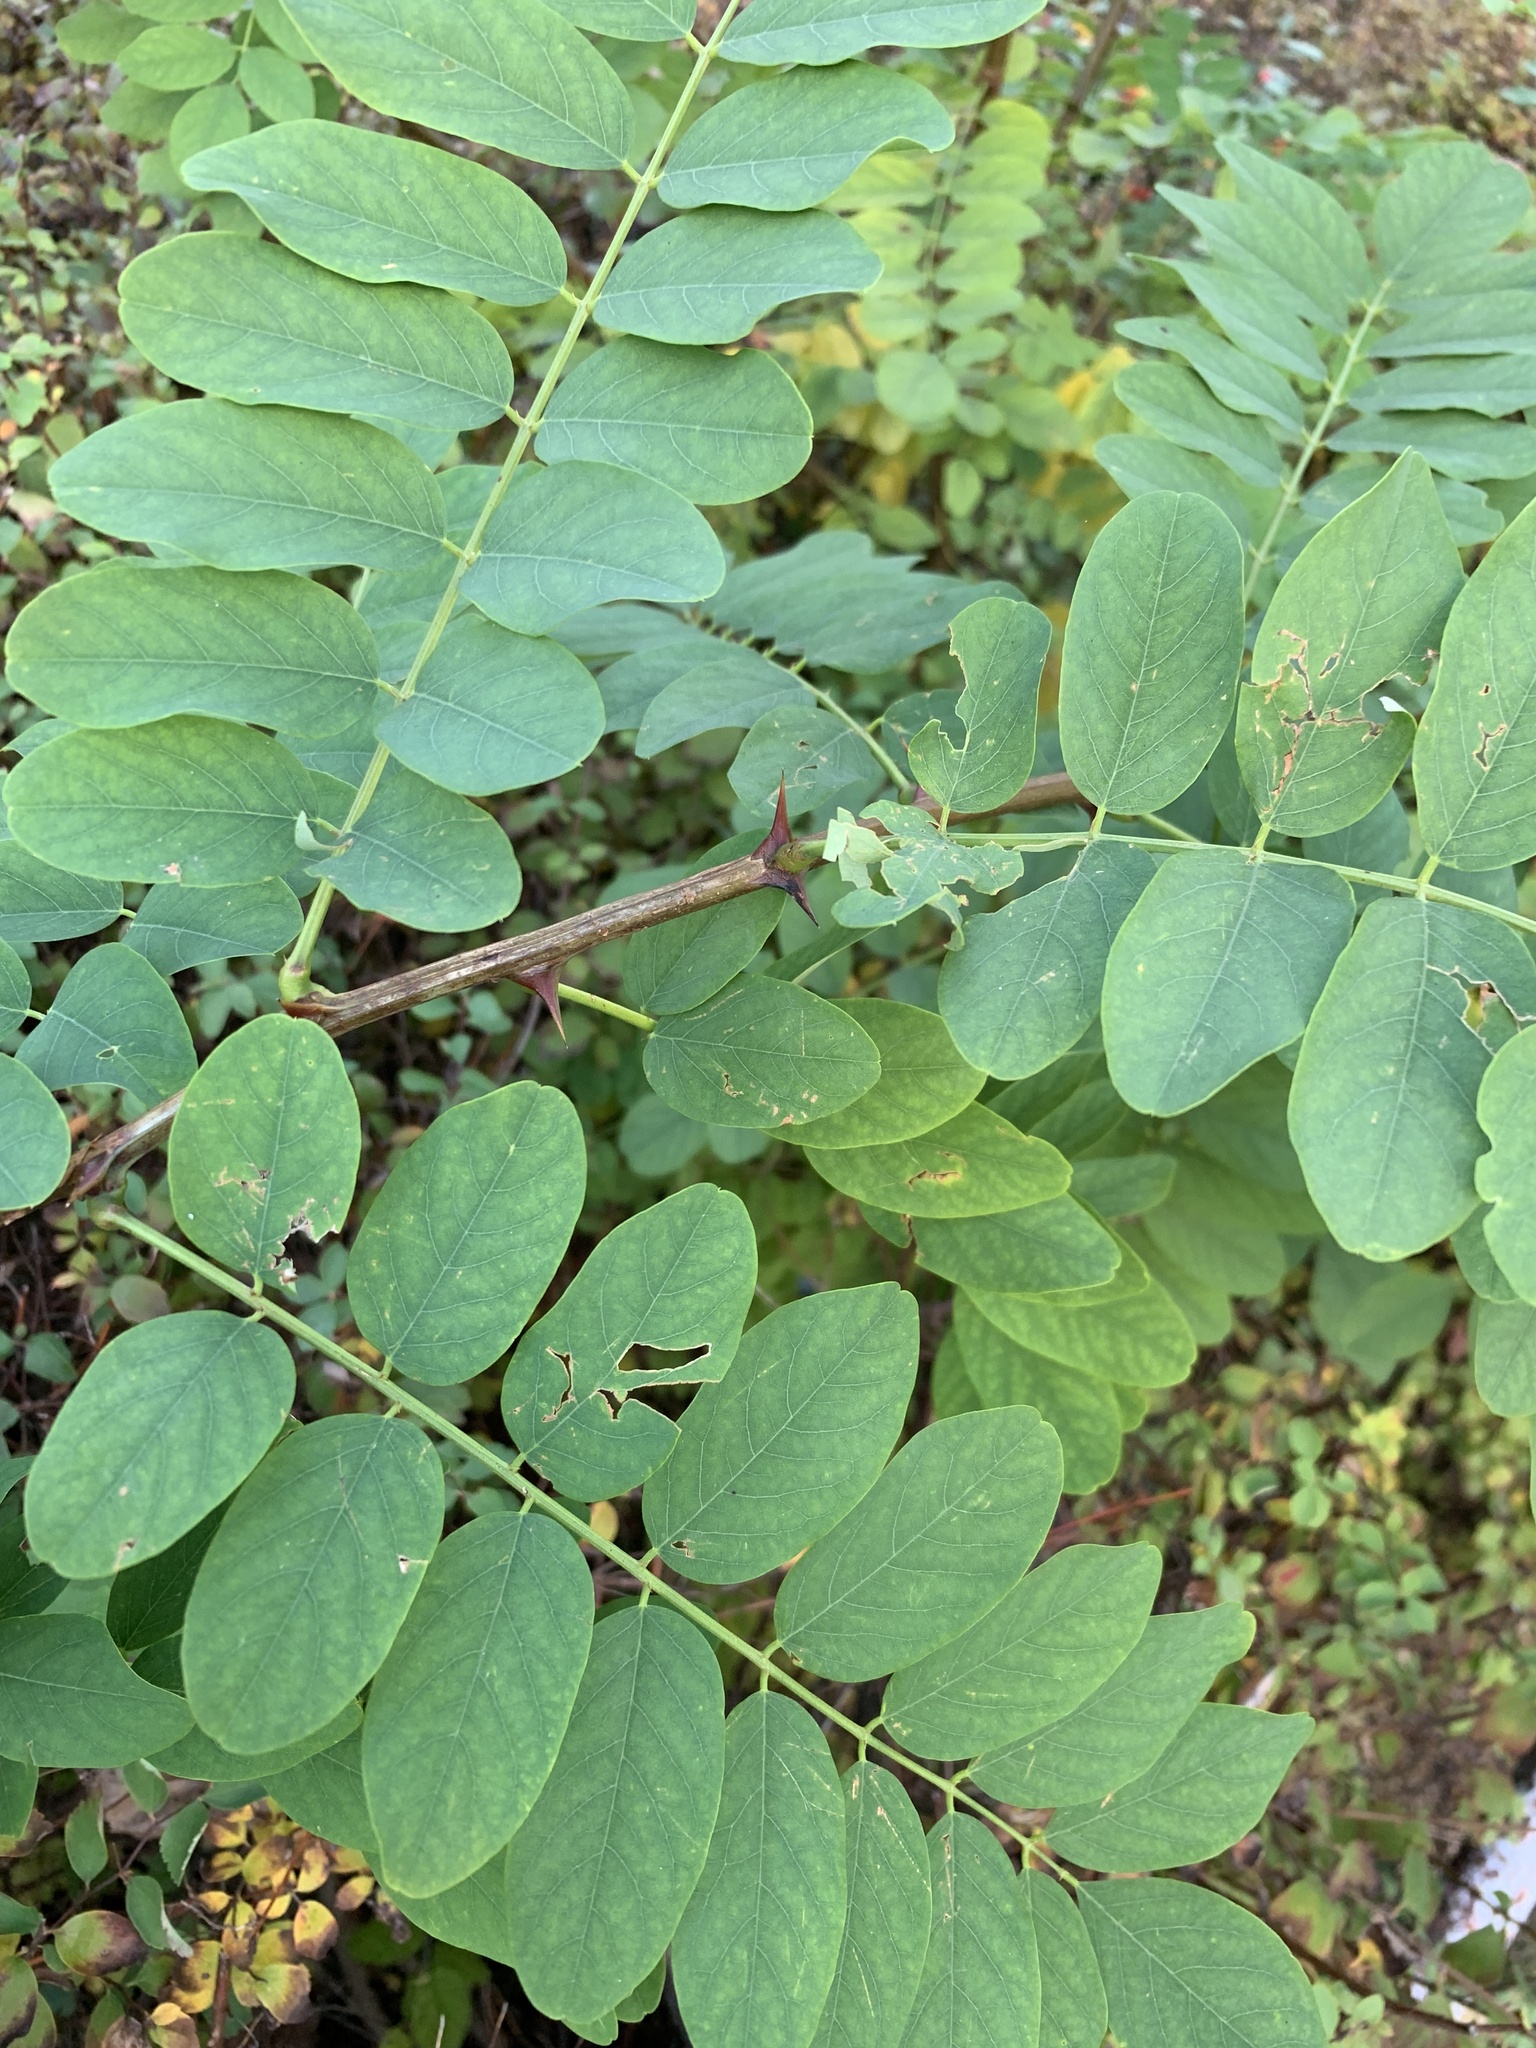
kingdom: Plantae
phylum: Tracheophyta
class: Magnoliopsida
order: Fabales
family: Fabaceae
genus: Robinia
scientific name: Robinia pseudoacacia
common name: Black locust
